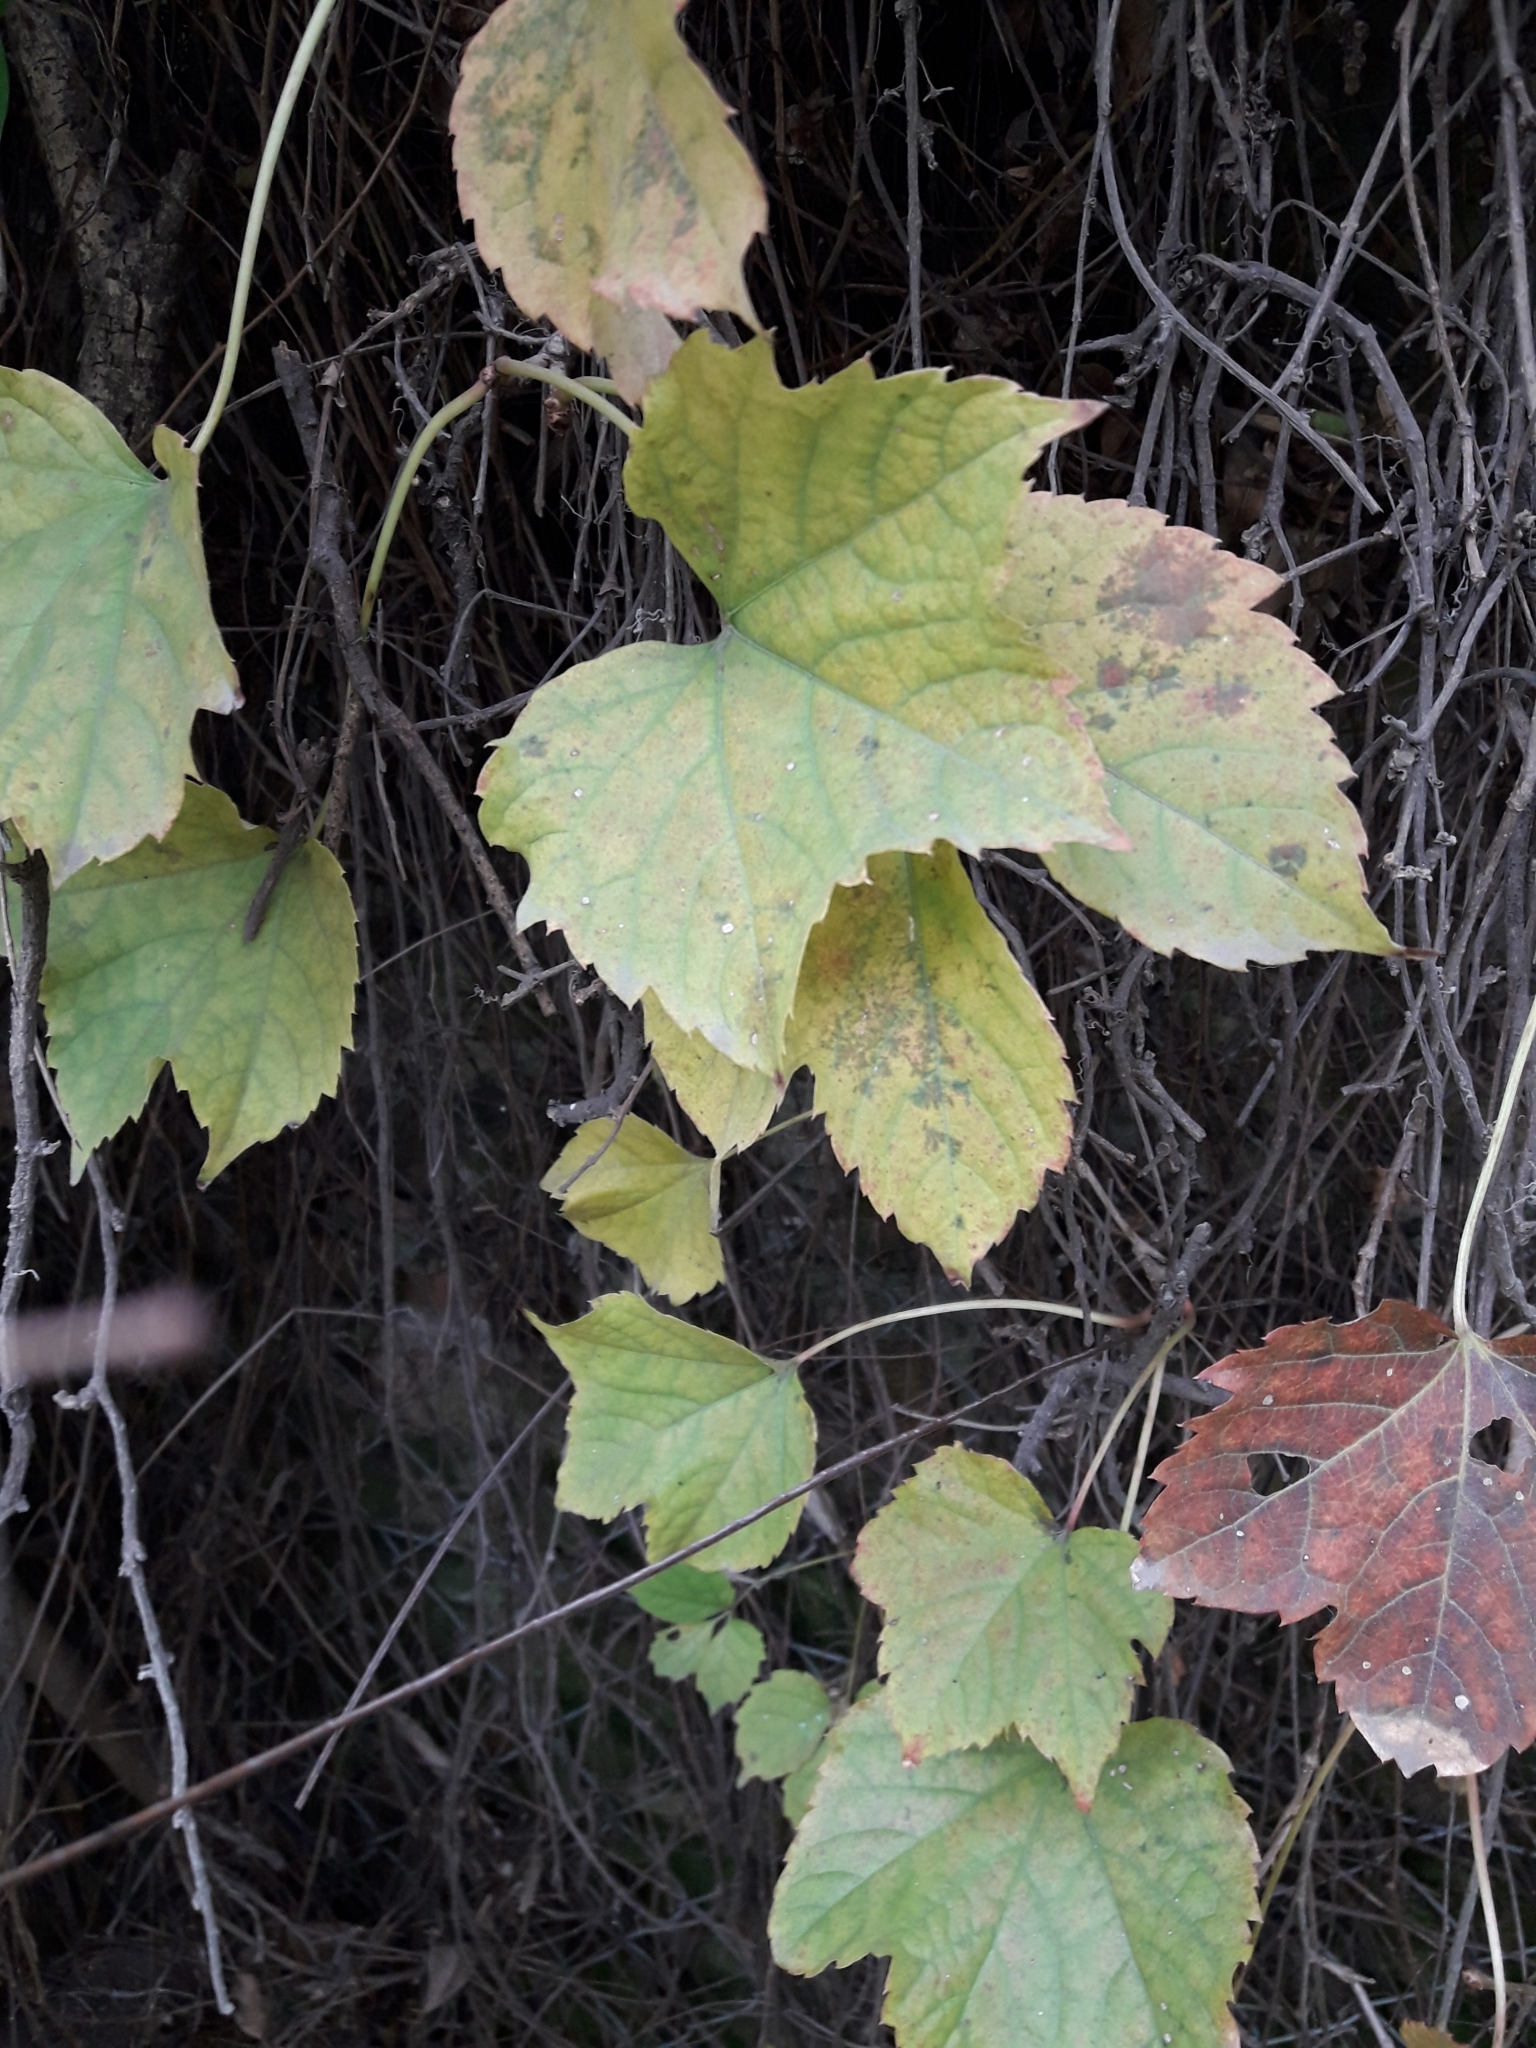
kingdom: Plantae
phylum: Tracheophyta
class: Magnoliopsida
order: Vitales
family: Vitaceae
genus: Parthenocissus
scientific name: Parthenocissus tricuspidata
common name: Boston ivy
